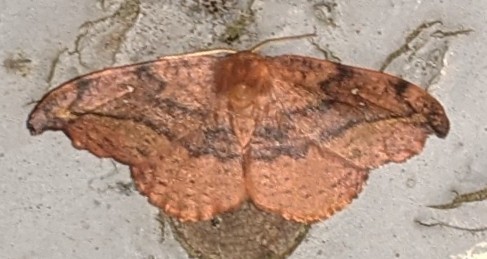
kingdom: Animalia
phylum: Arthropoda
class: Insecta
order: Lepidoptera
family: Drepanidae
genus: Oreta
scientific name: Oreta rosea
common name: Rose hooktip
